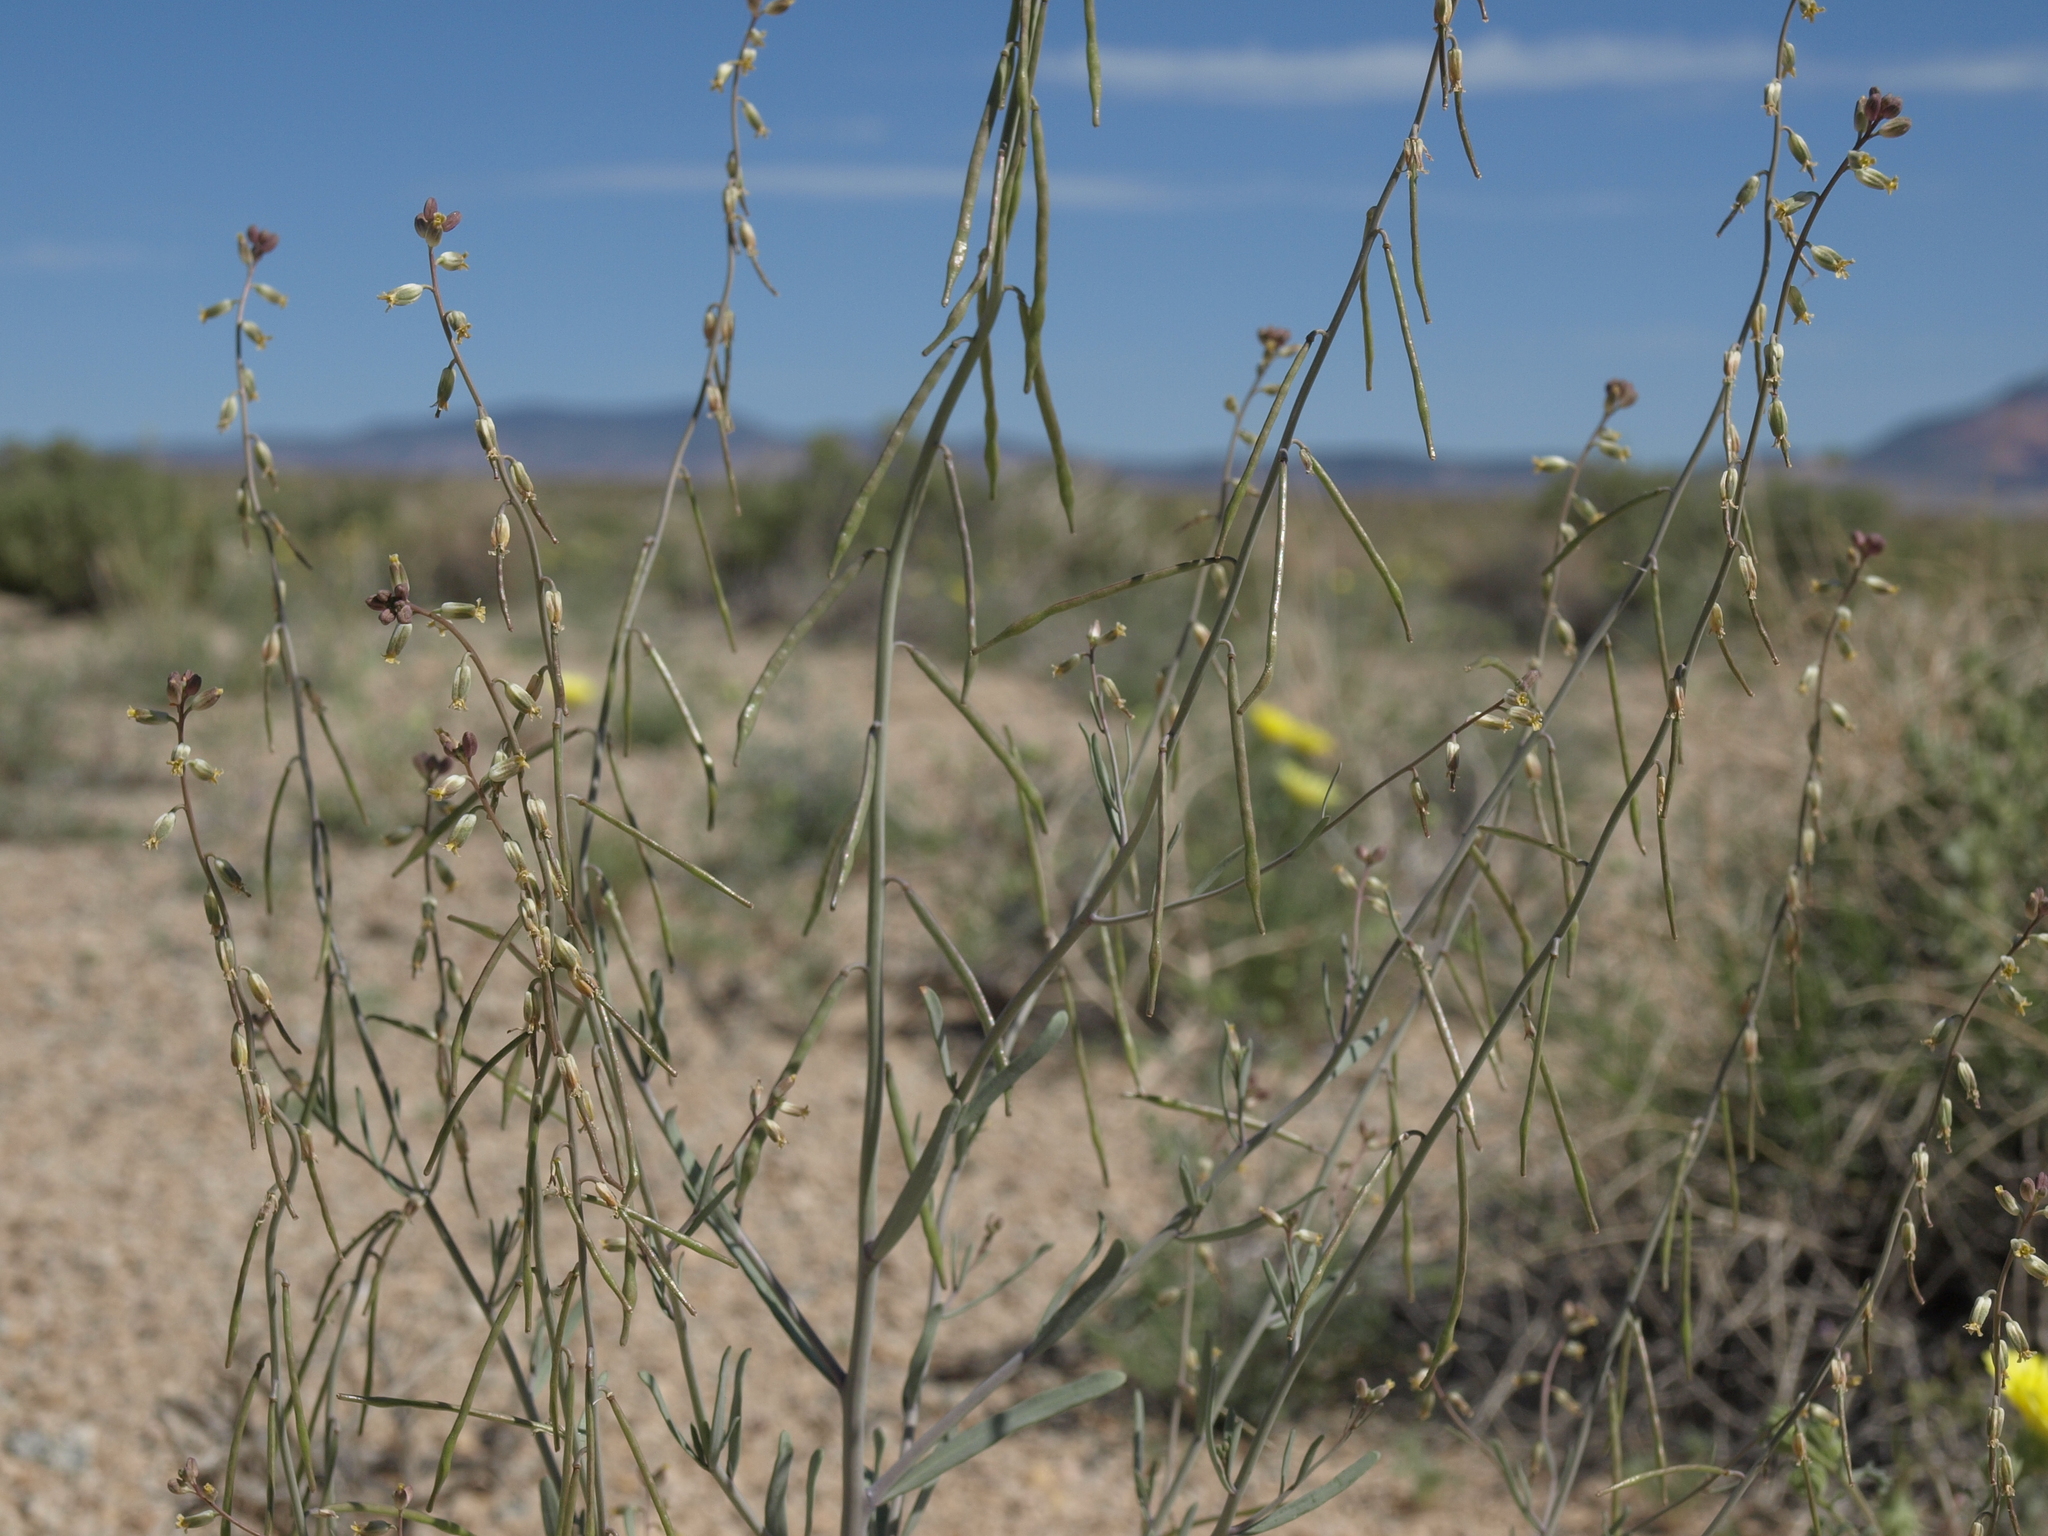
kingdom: Plantae
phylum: Tracheophyta
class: Magnoliopsida
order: Brassicales
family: Brassicaceae
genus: Streptanthus
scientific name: Streptanthus longirostris
